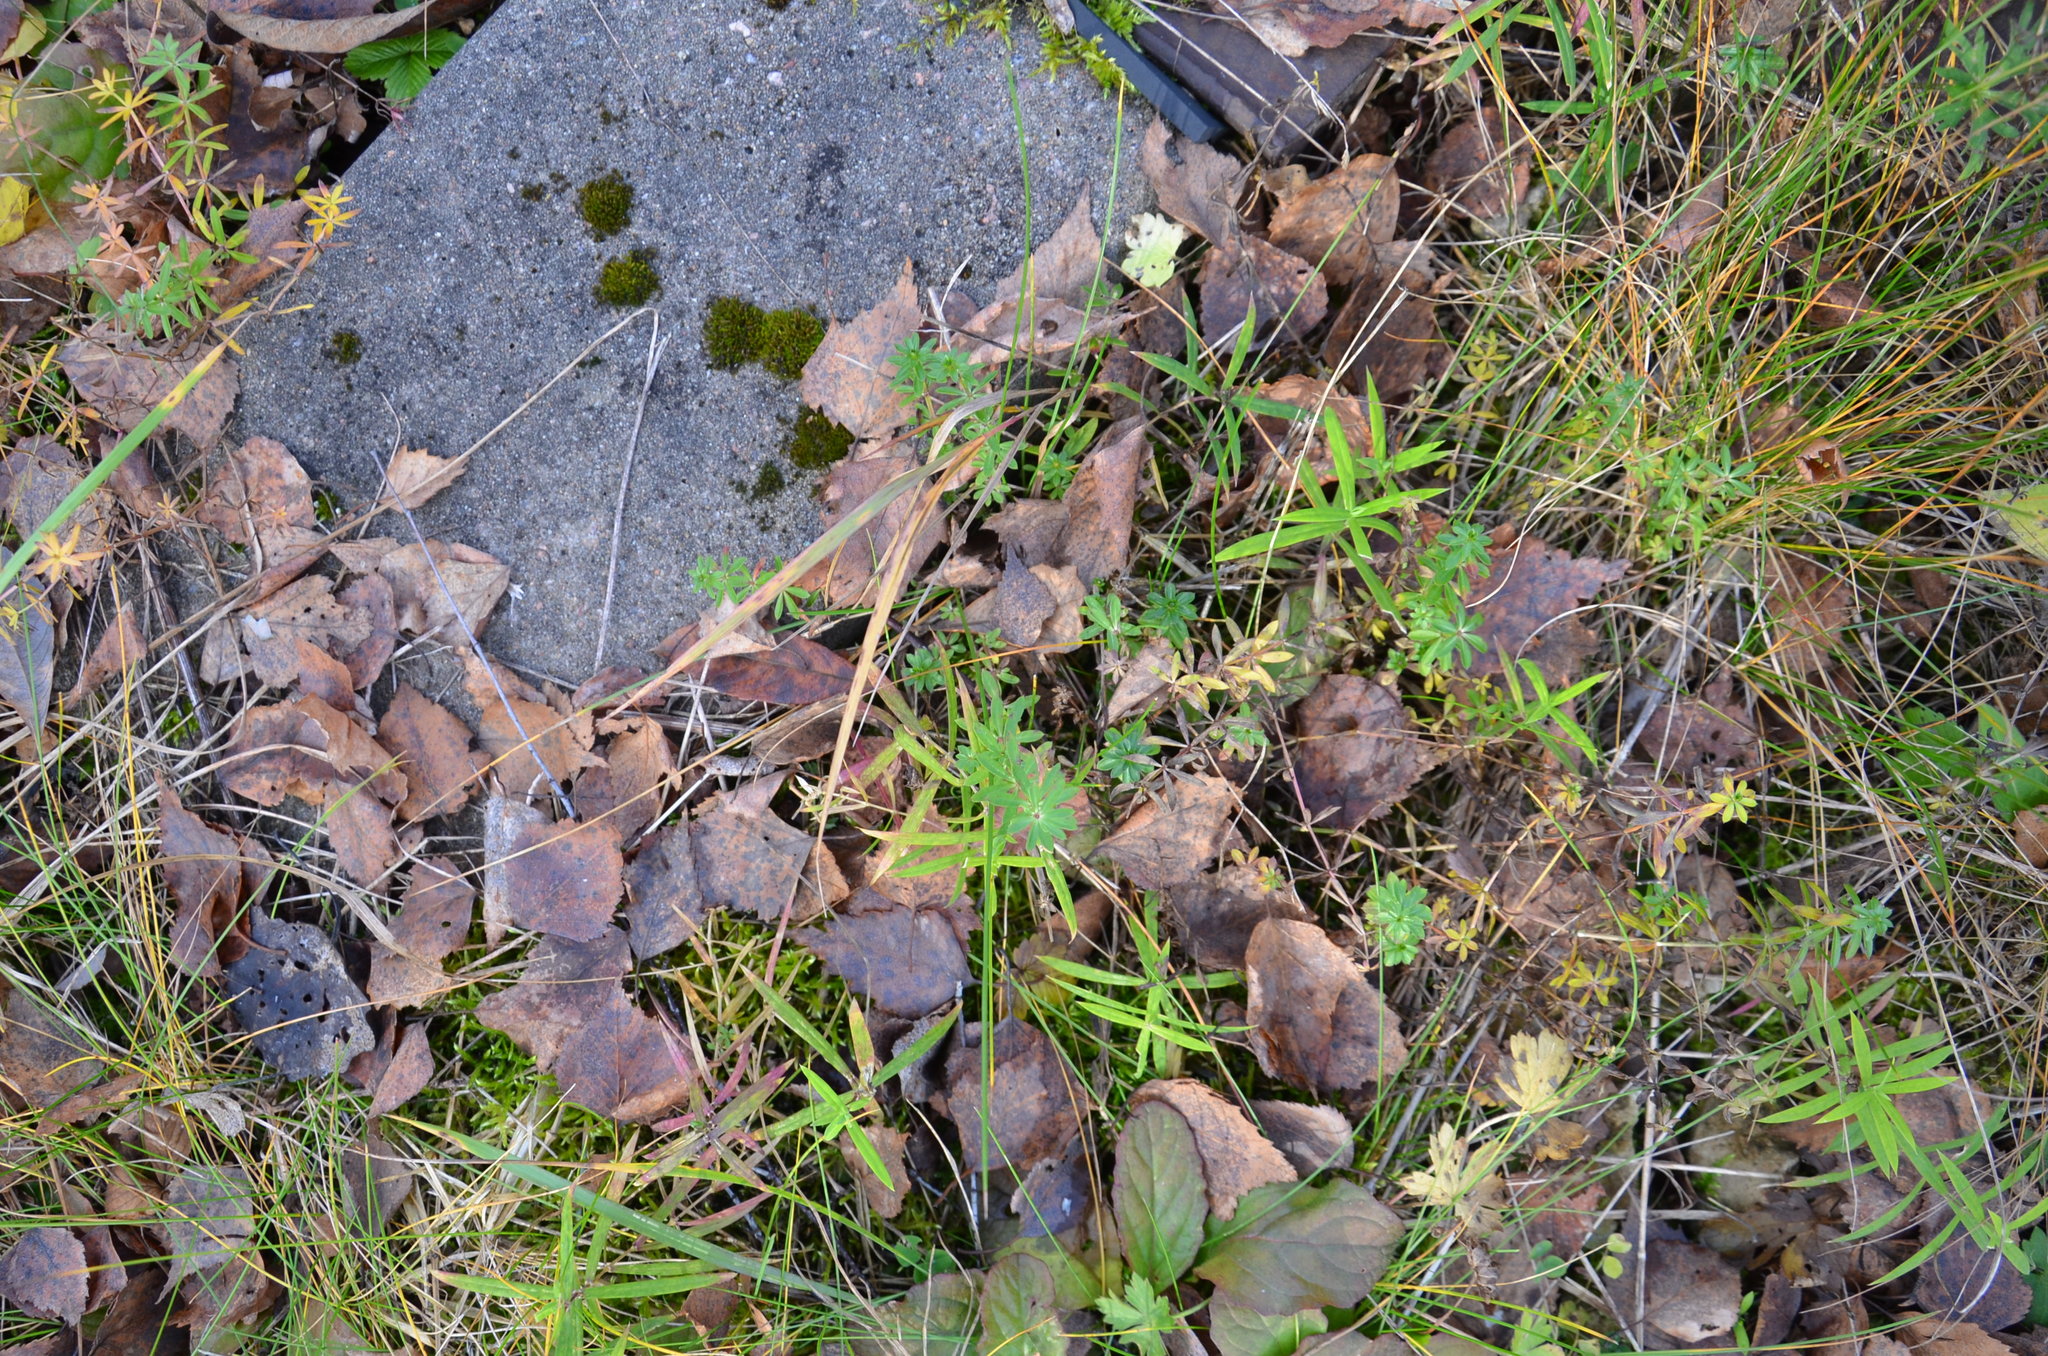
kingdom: Plantae
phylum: Tracheophyta
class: Magnoliopsida
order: Caryophyllales
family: Caryophyllaceae
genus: Rabelera
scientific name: Rabelera holostea
